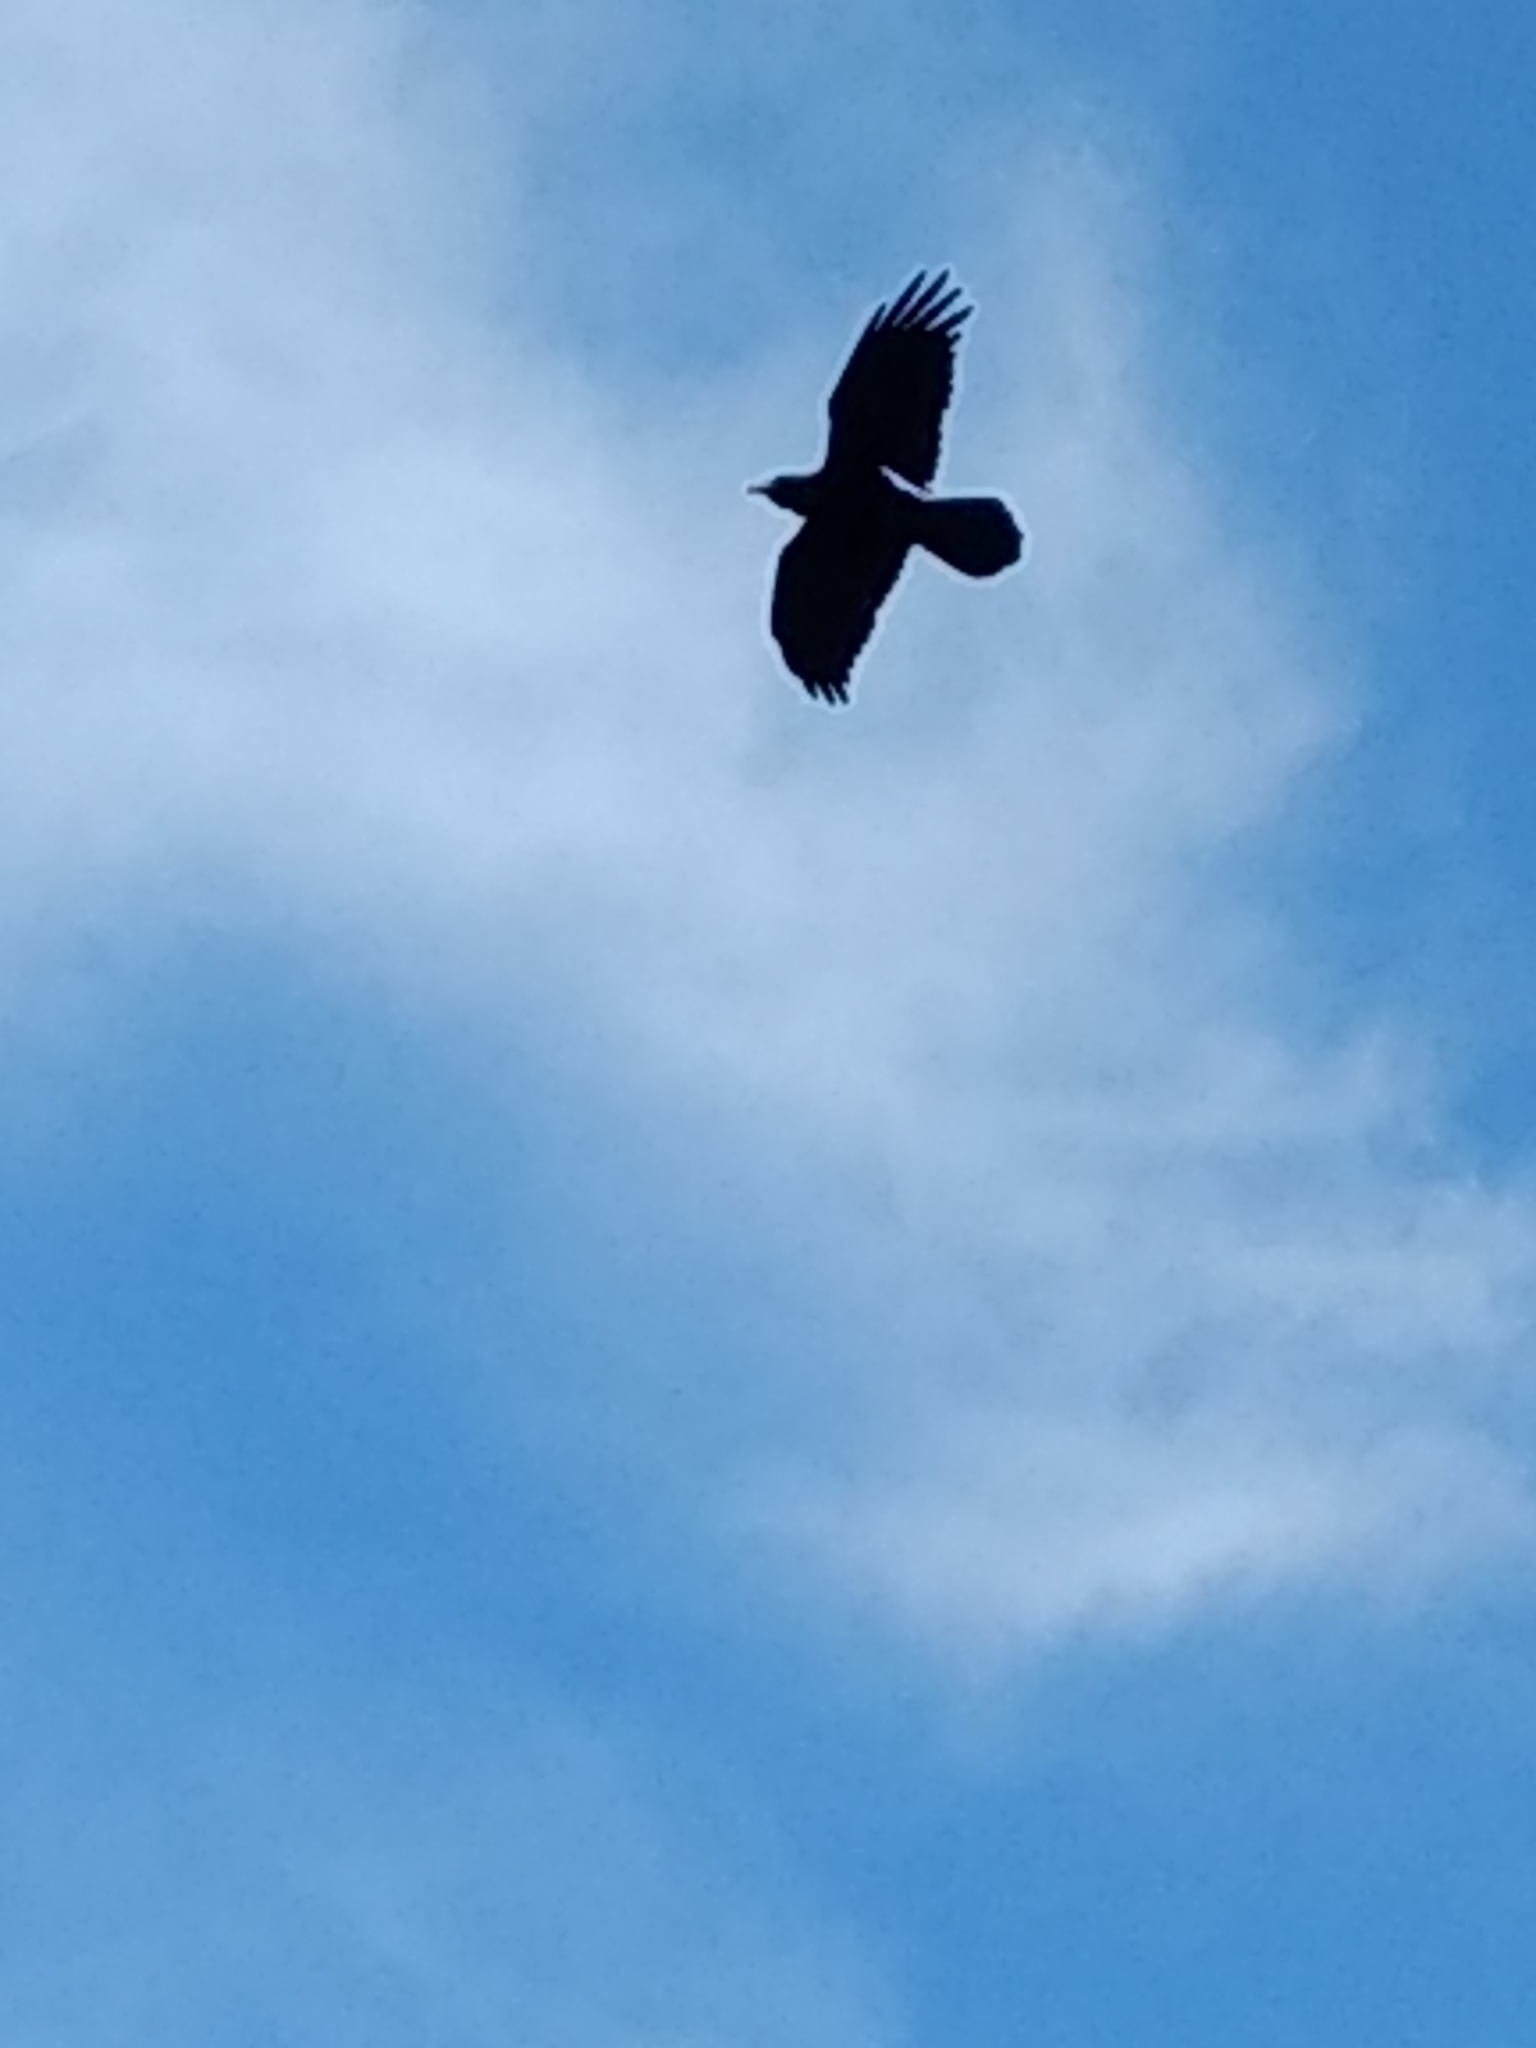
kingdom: Animalia
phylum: Chordata
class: Aves
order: Passeriformes
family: Corvidae
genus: Corvus
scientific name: Corvus corax
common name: Common raven
